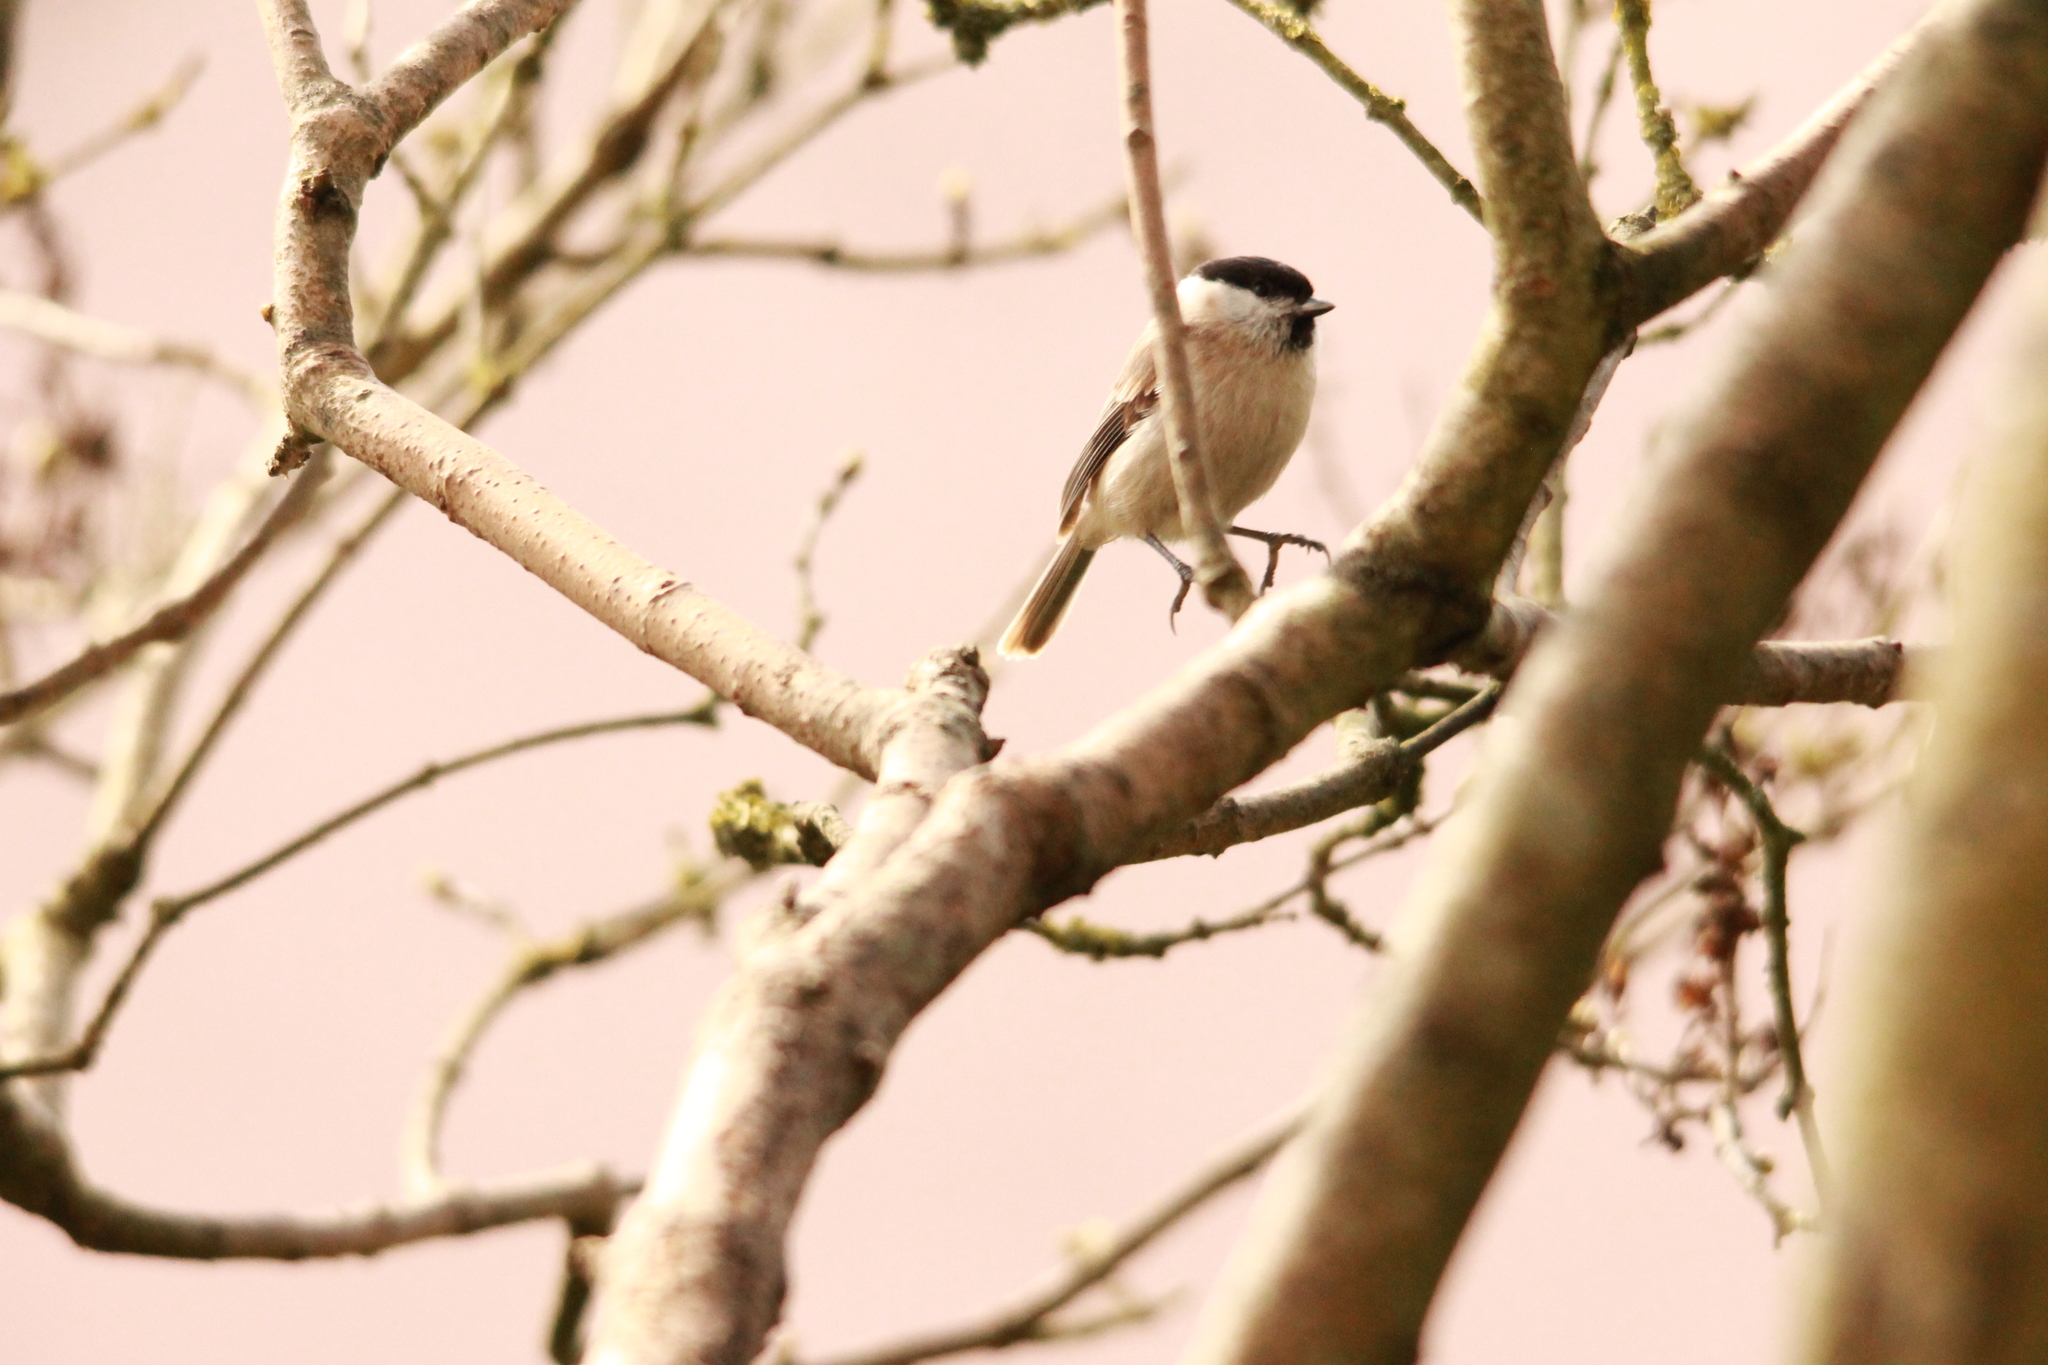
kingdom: Animalia
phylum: Chordata
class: Aves
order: Passeriformes
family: Paridae
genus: Poecile
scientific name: Poecile palustris
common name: Marsh tit
